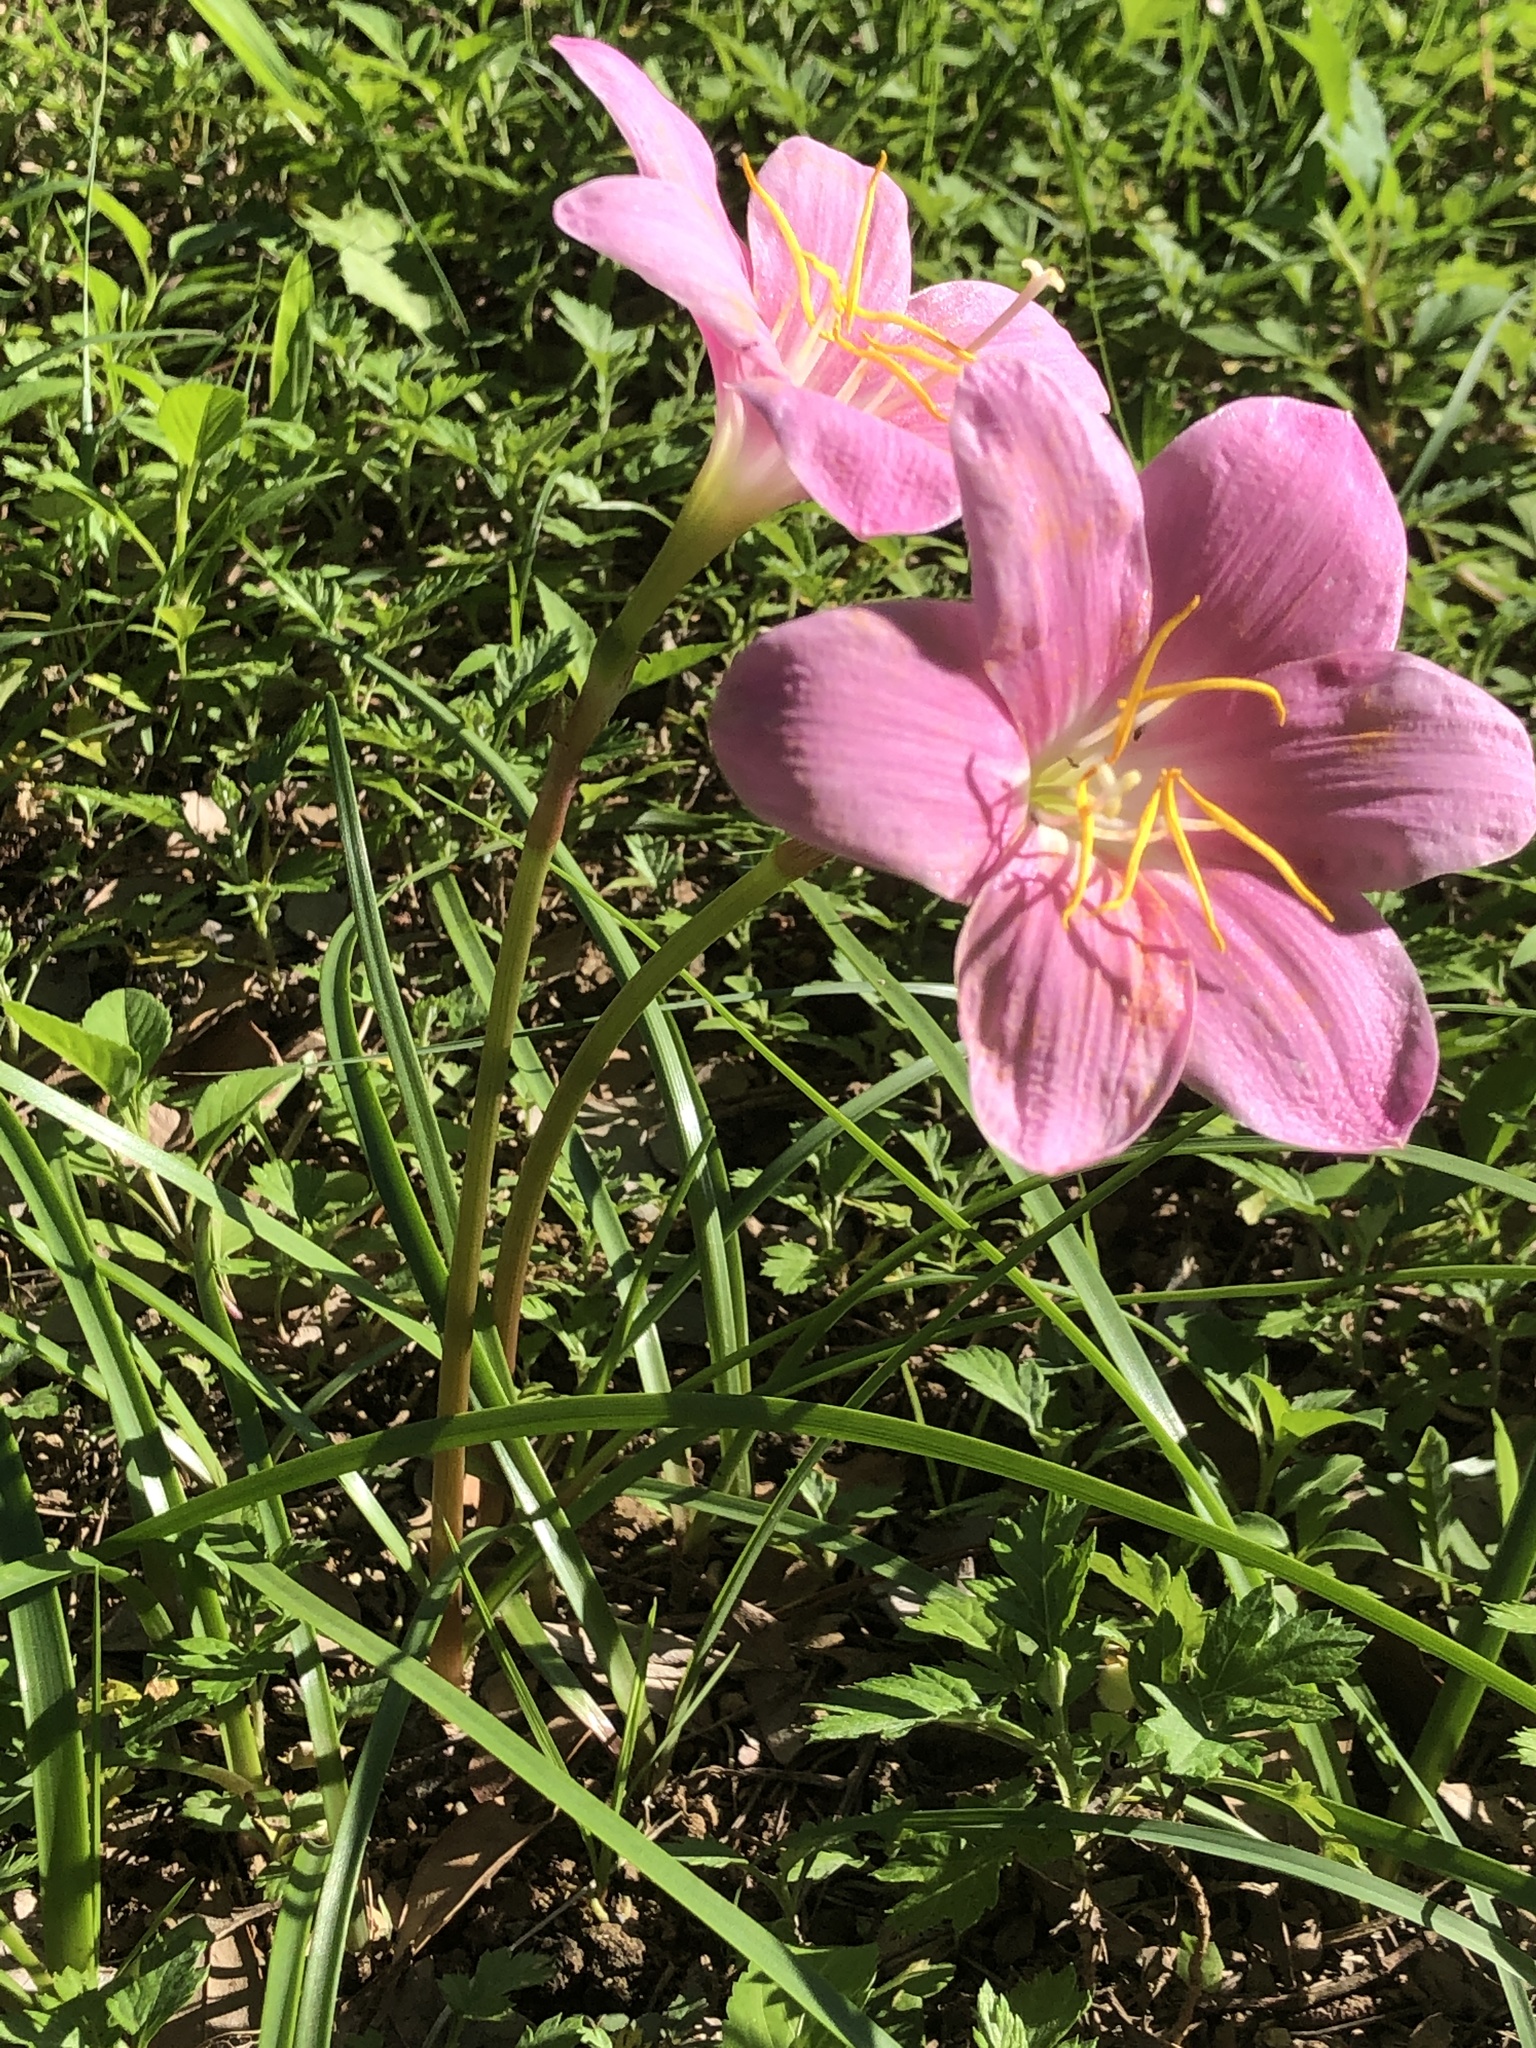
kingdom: Plantae
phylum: Tracheophyta
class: Liliopsida
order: Asparagales
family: Amaryllidaceae
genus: Zephyranthes
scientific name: Zephyranthes carinata
